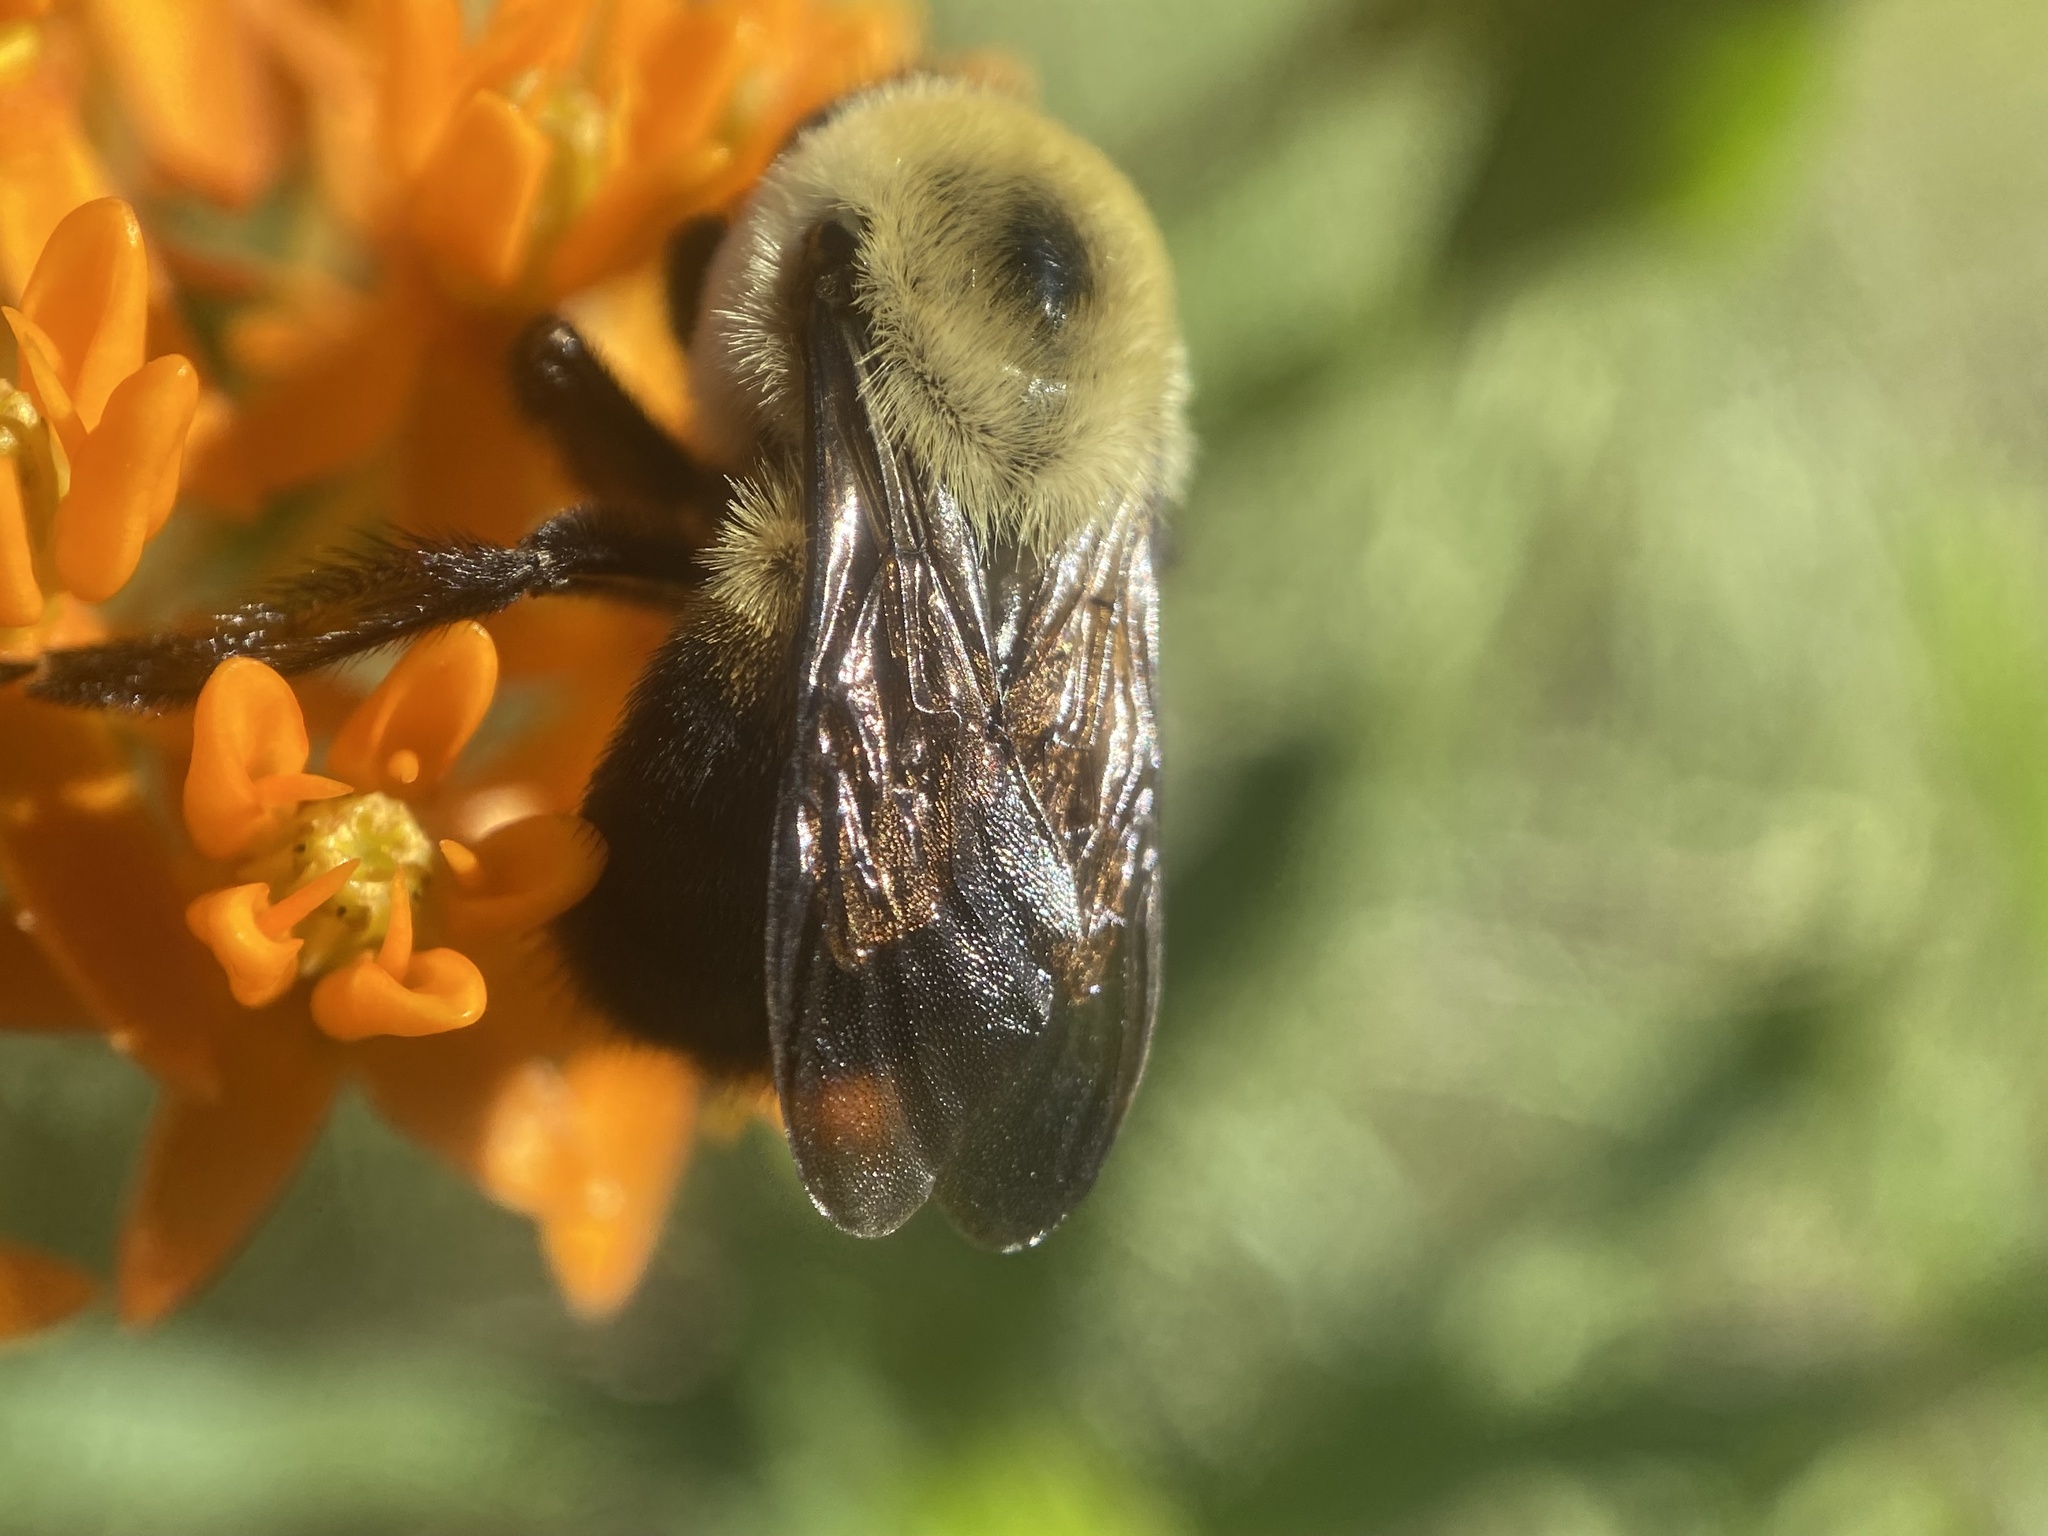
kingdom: Animalia
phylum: Arthropoda
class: Insecta
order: Hymenoptera
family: Apidae
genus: Bombus
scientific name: Bombus griseocollis
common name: Brown-belted bumble bee
